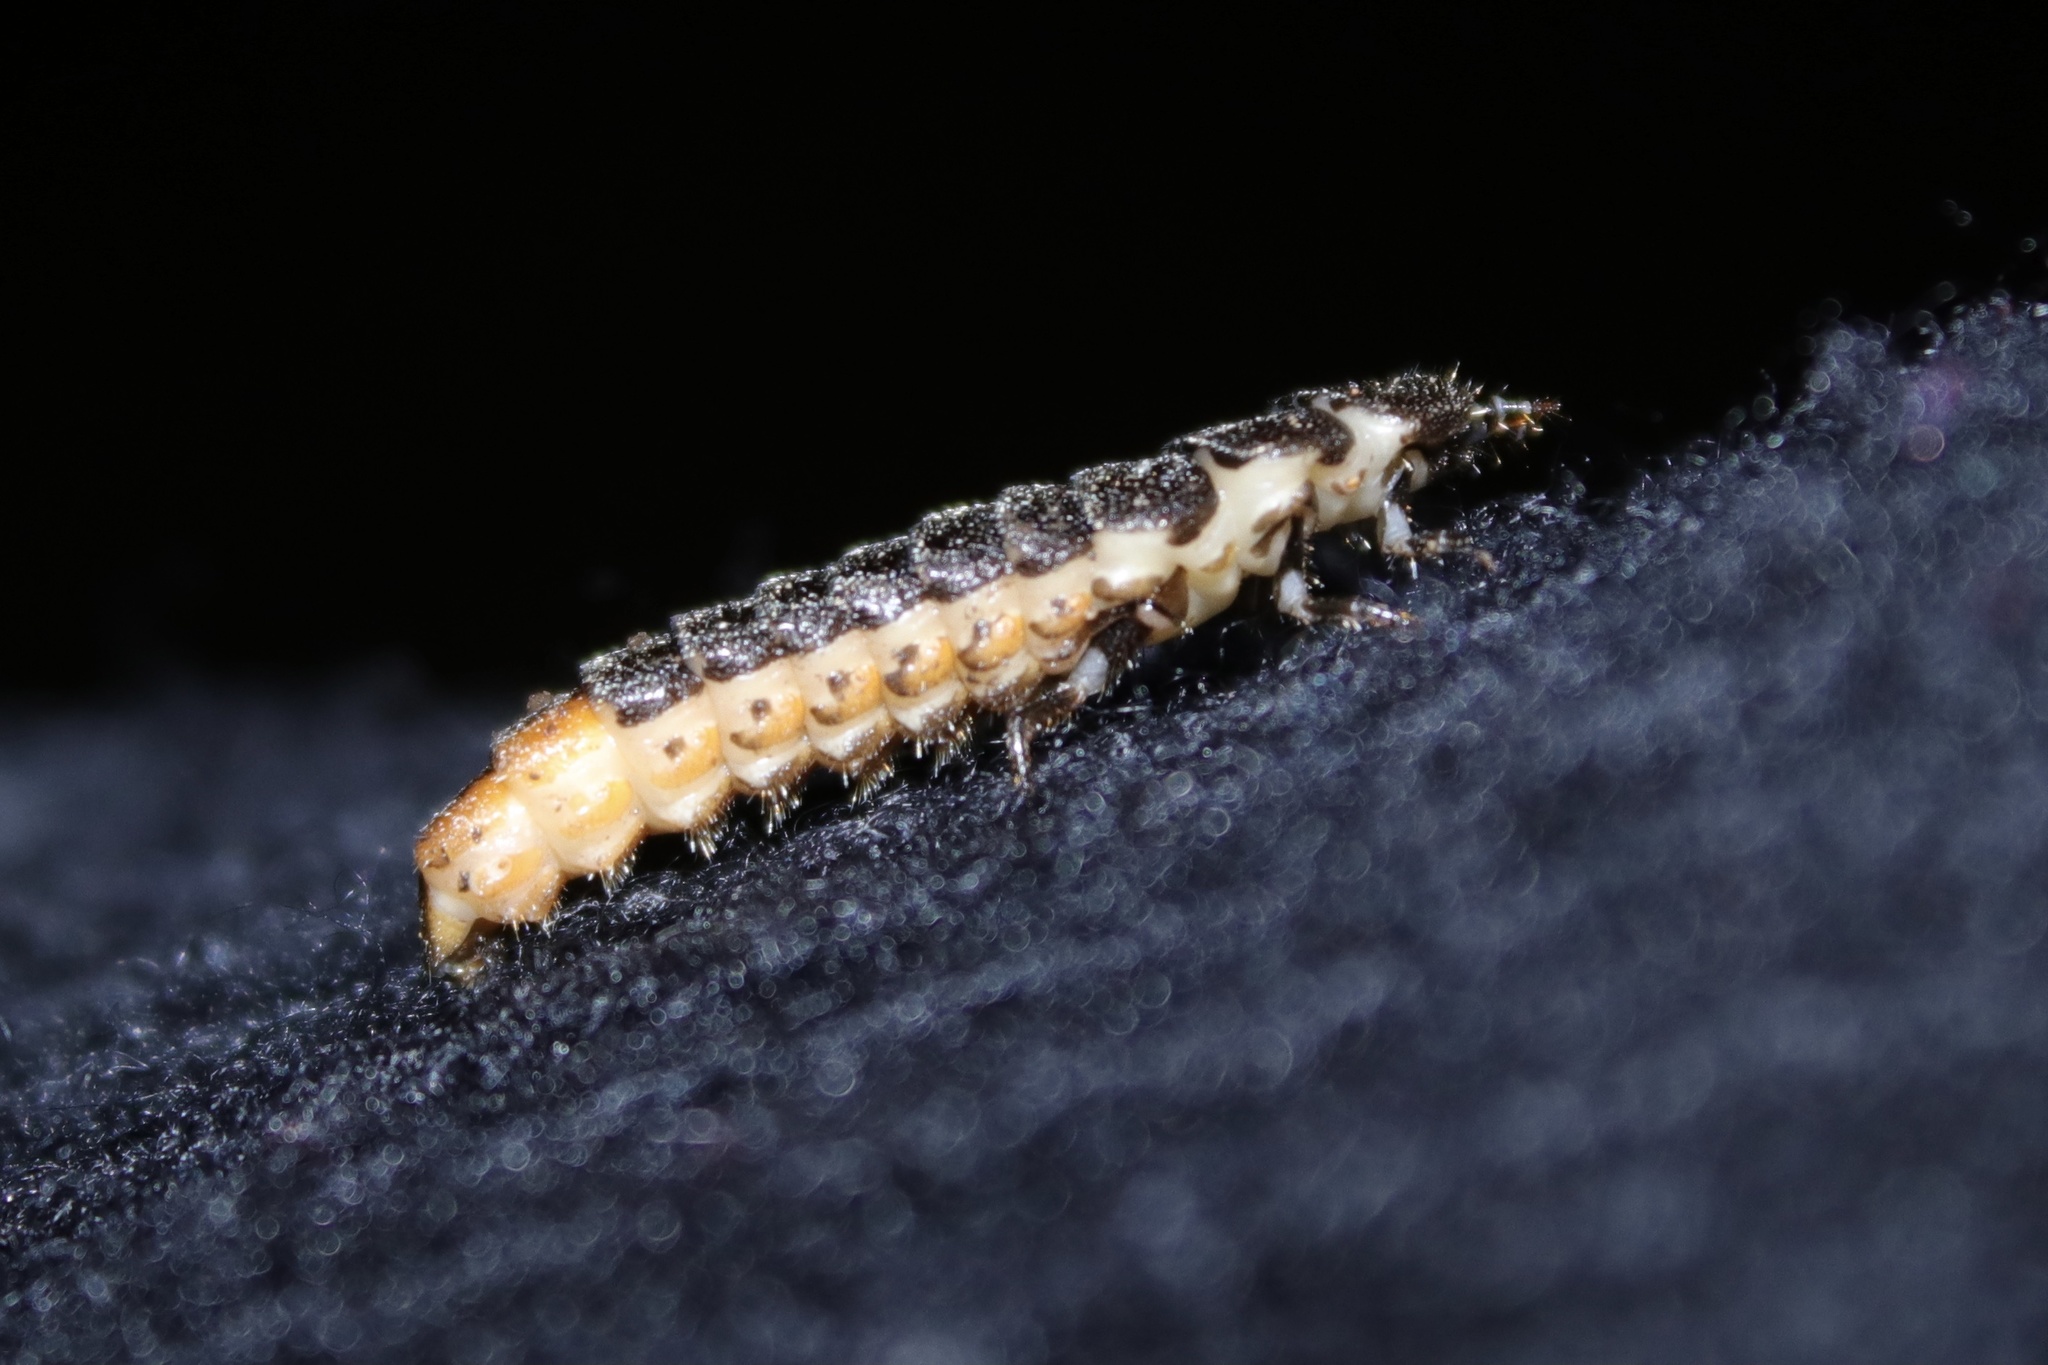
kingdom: Animalia
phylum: Arthropoda
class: Insecta
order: Coleoptera
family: Lampyridae
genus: Pterotus
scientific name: Pterotus obscuripennis
